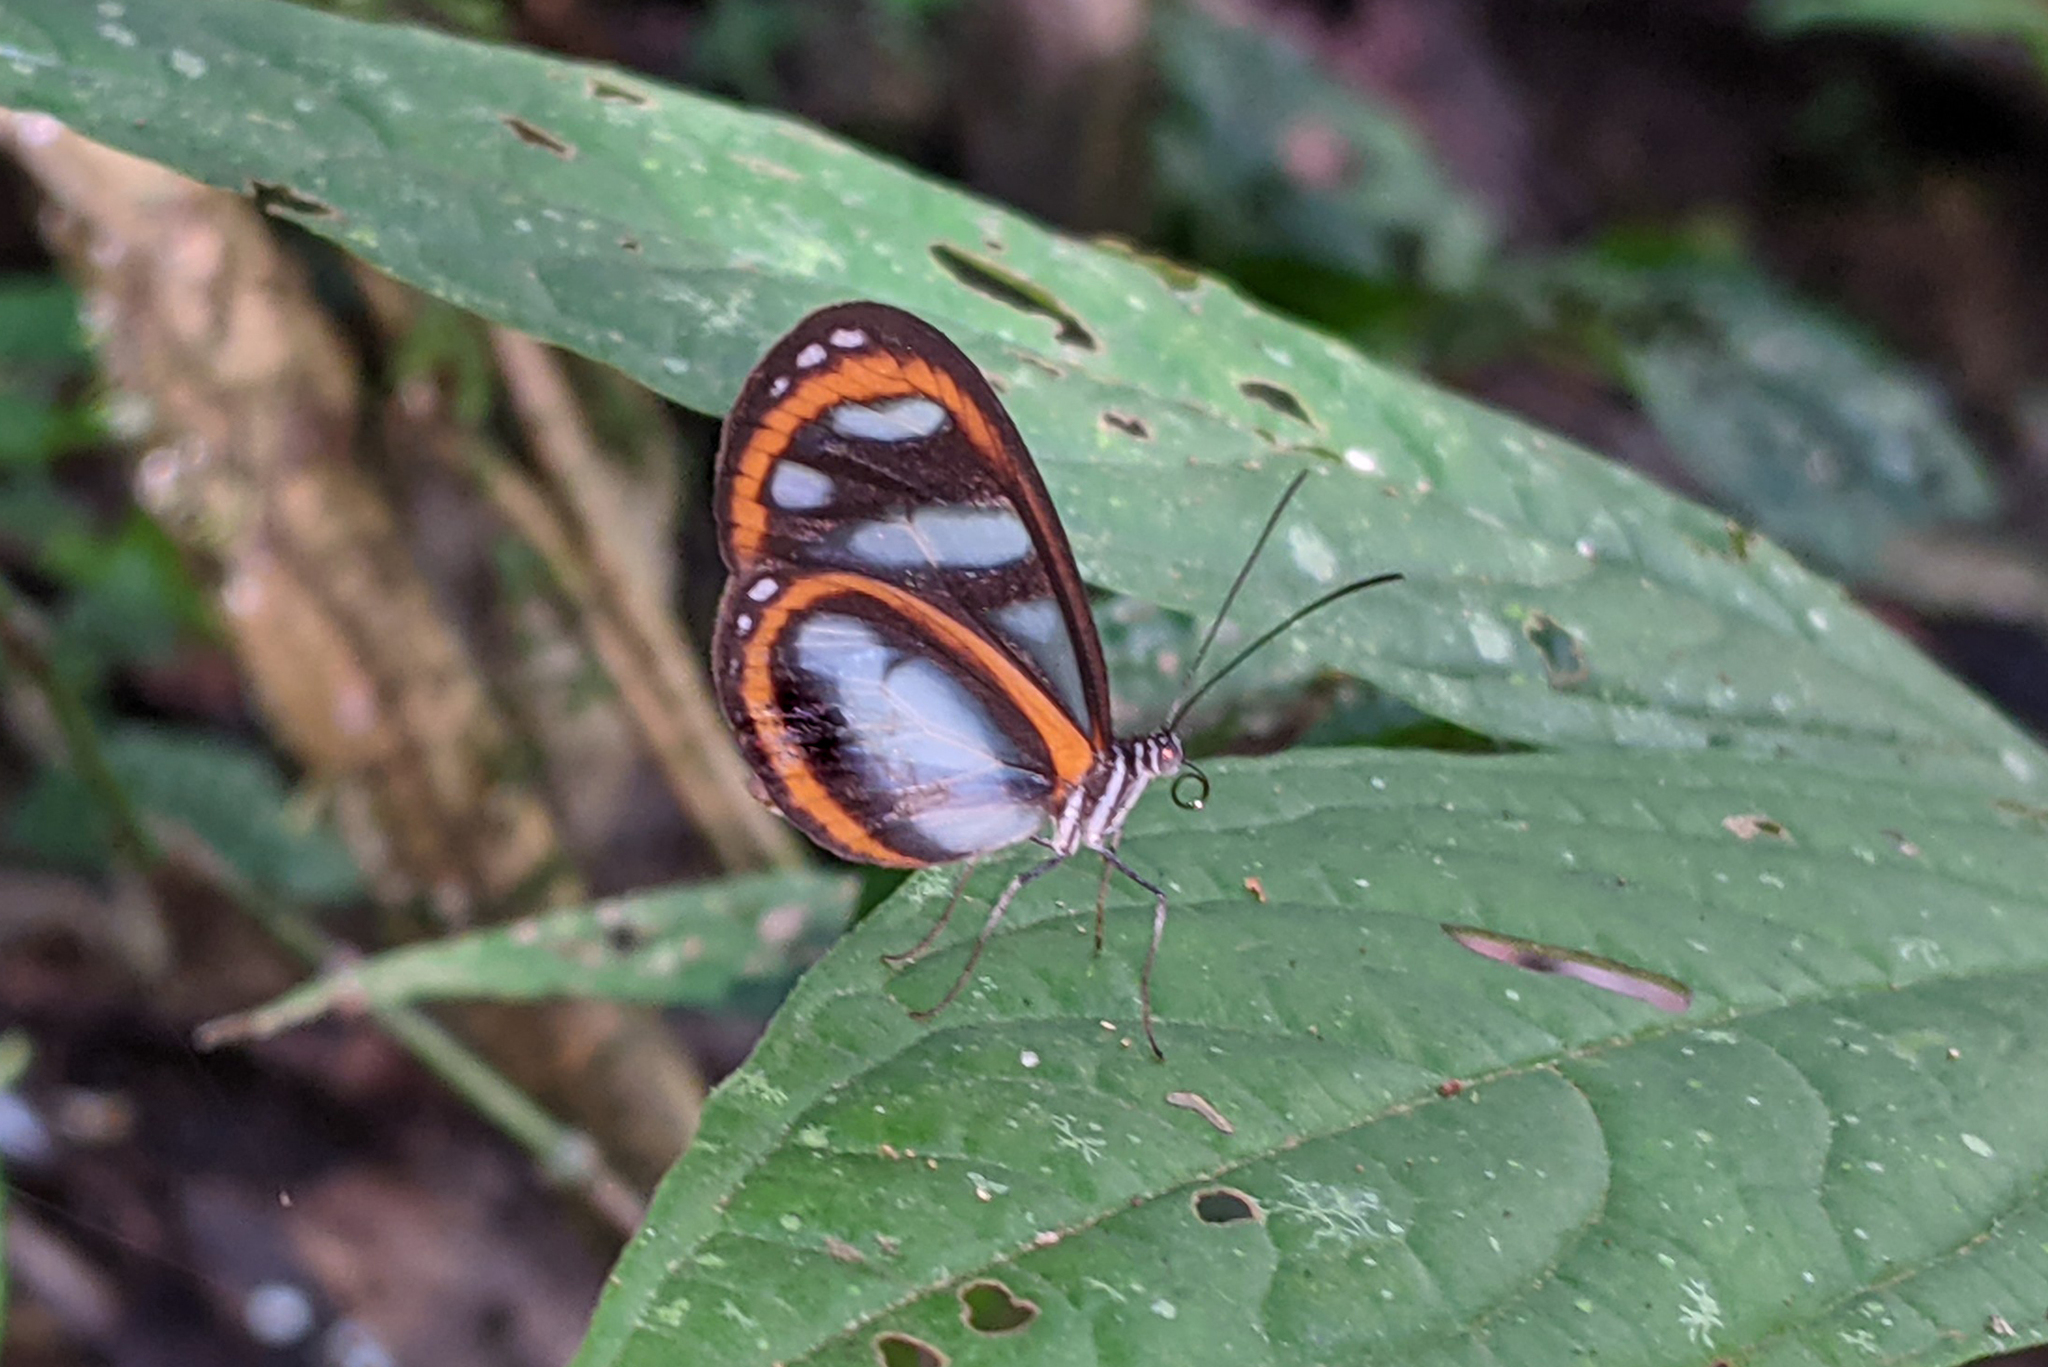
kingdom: Animalia
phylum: Arthropoda
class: Insecta
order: Lepidoptera
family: Nymphalidae
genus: Oleria
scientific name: Oleria gunilla
